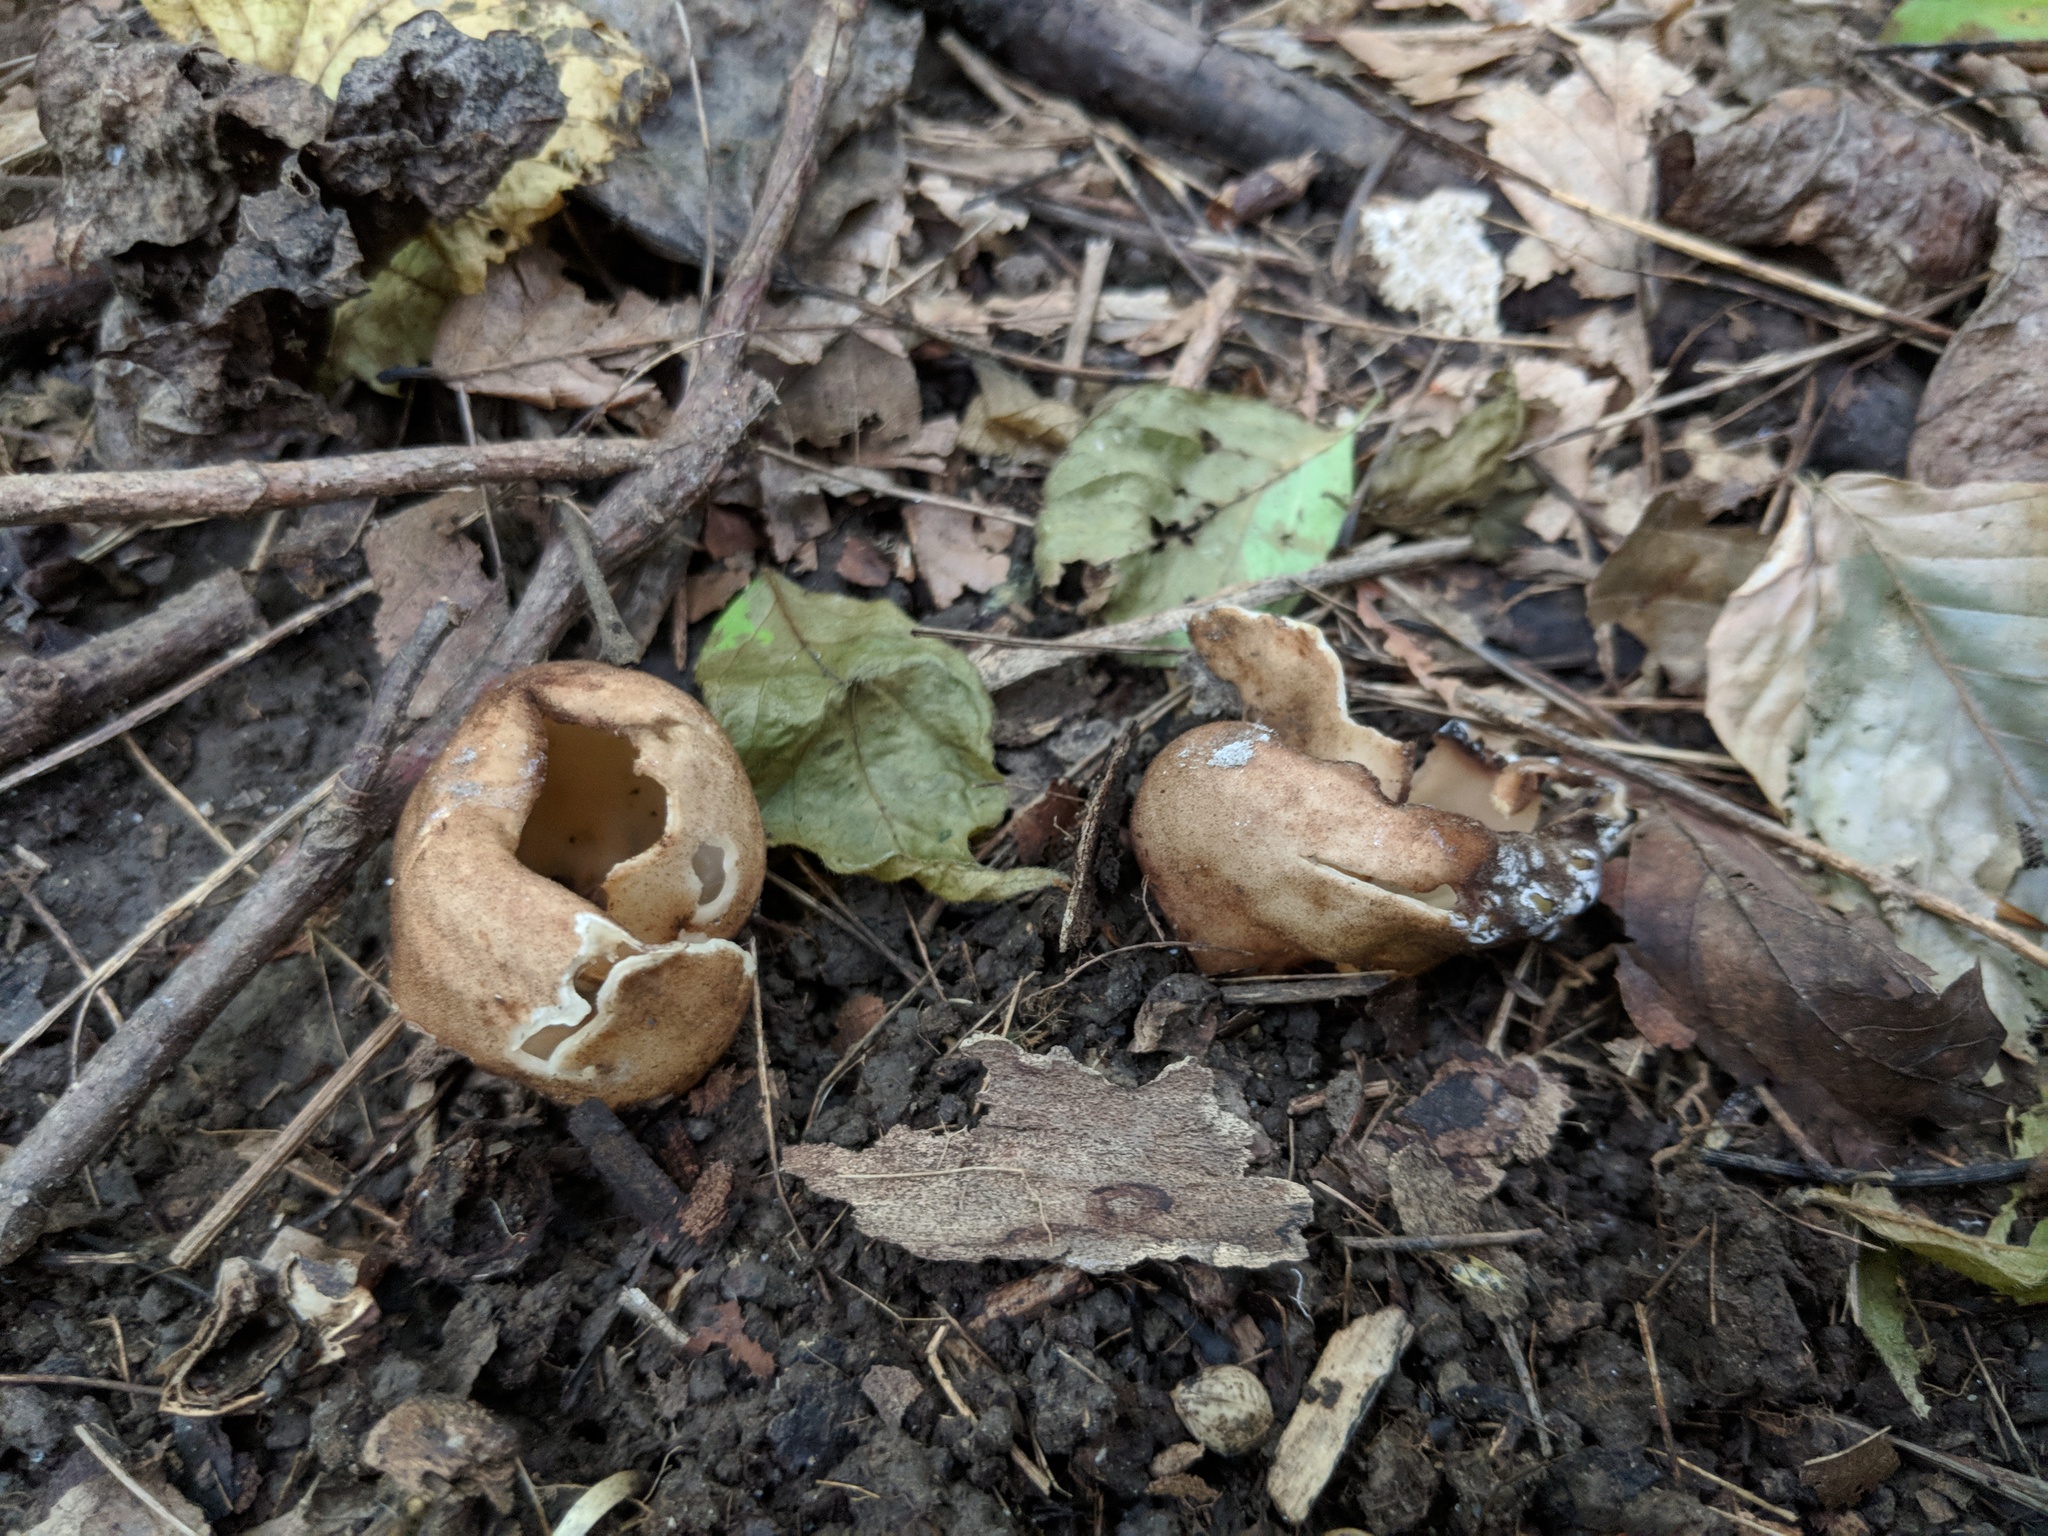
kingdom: Fungi
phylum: Ascomycota
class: Pezizomycetes
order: Pezizales
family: Pyronemataceae
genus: Jafnea
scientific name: Jafnea semitosta
